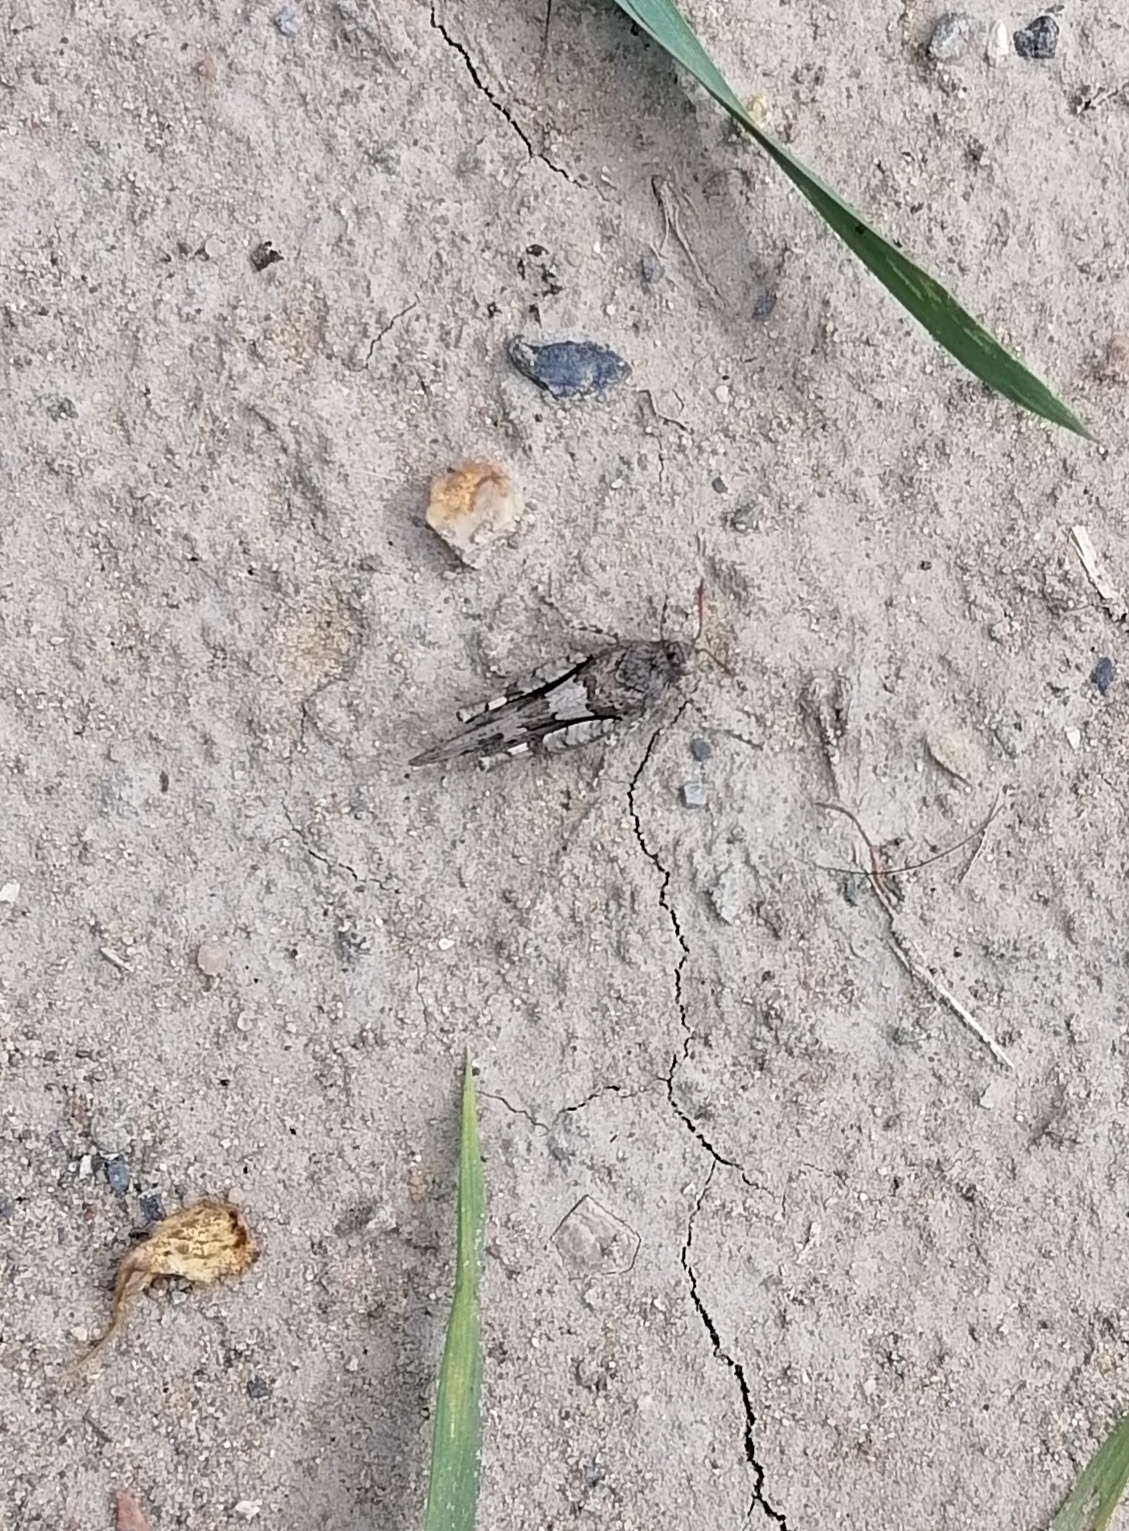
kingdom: Animalia
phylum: Arthropoda
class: Insecta
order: Orthoptera
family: Acrididae
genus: Oedipoda
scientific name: Oedipoda miniata
